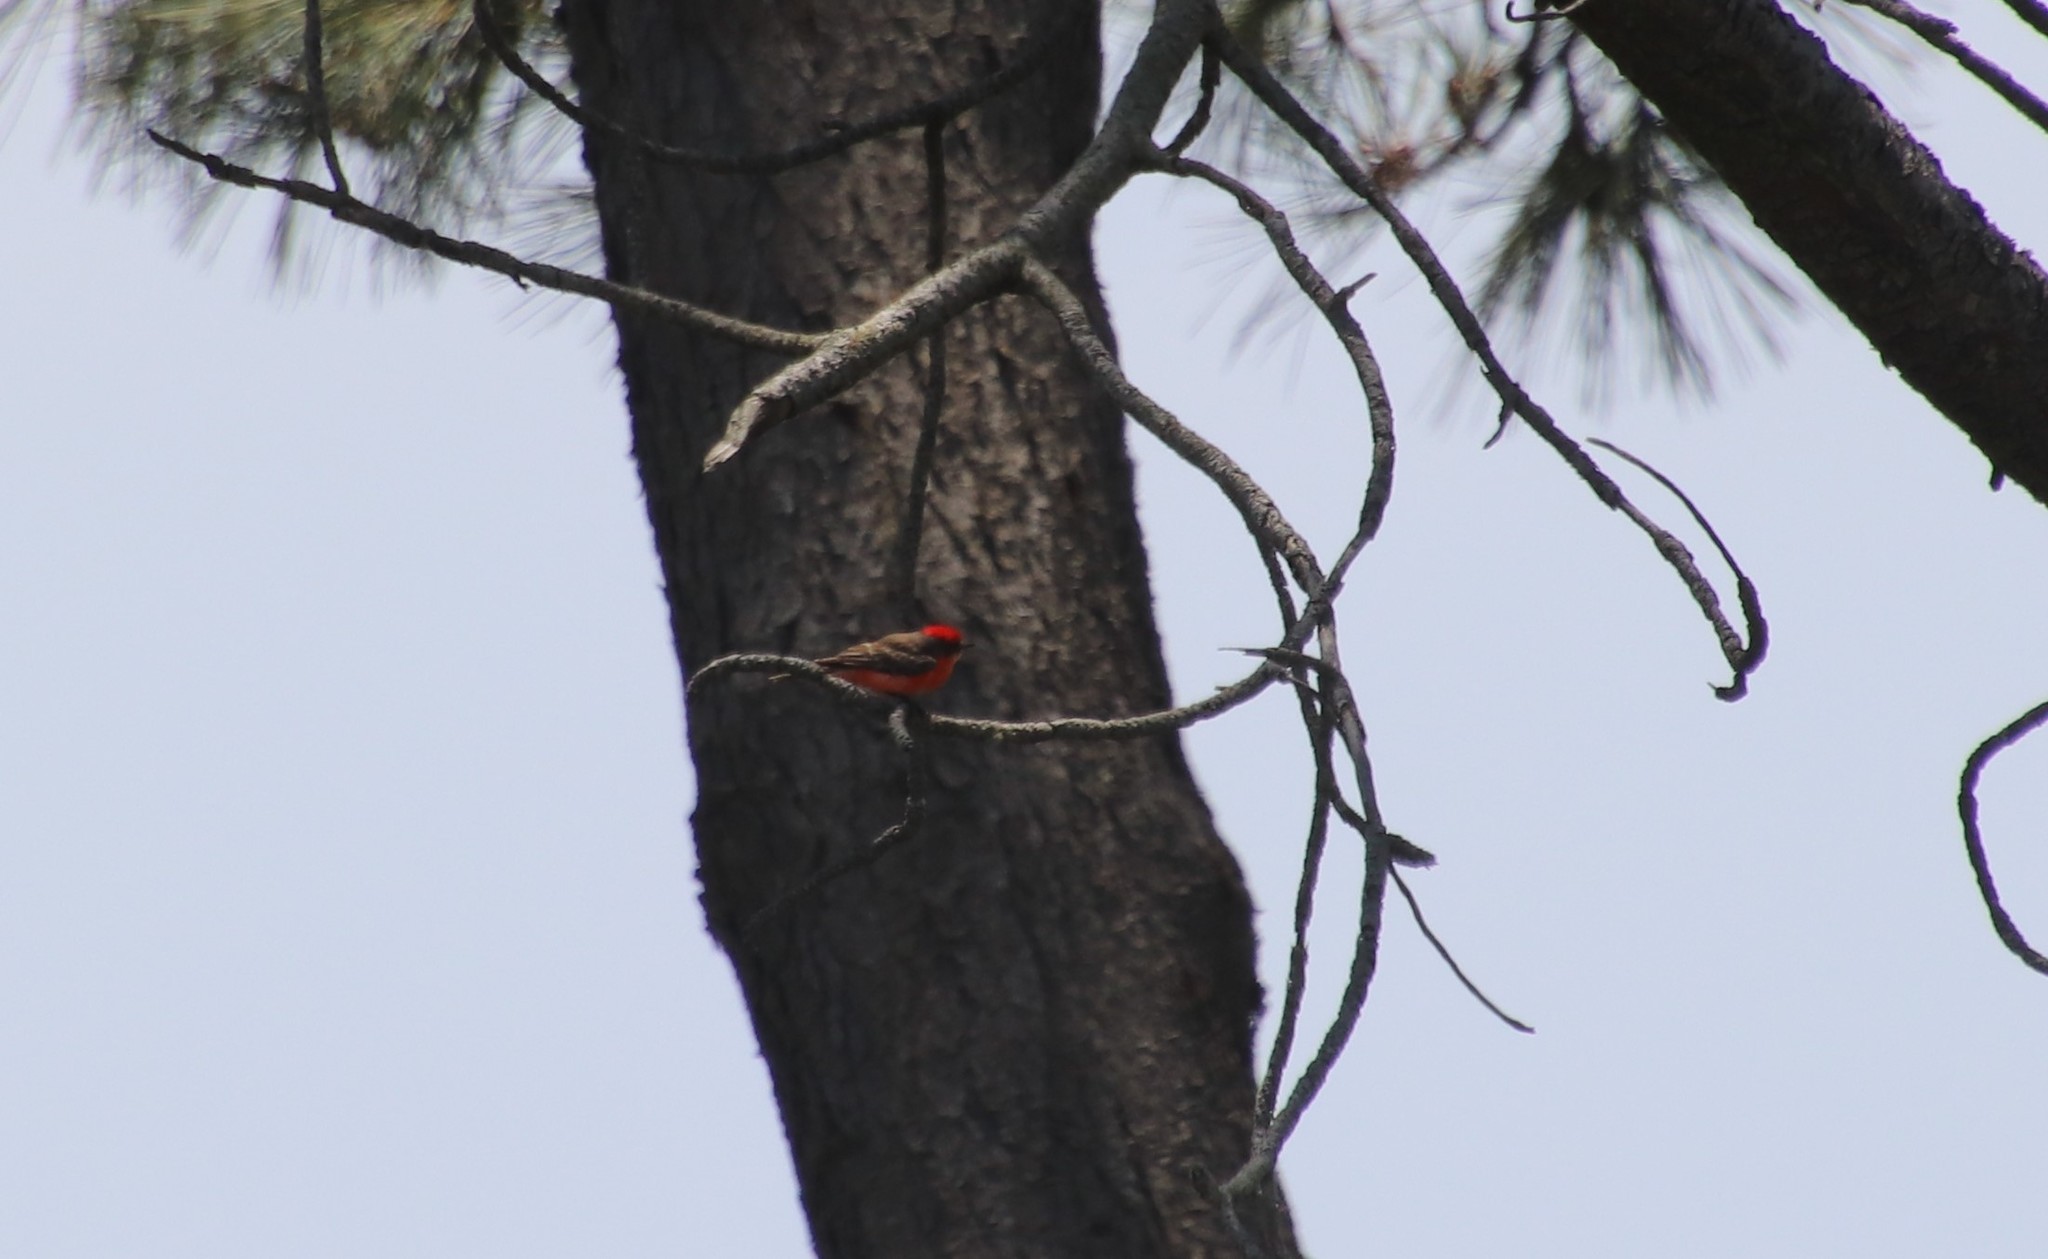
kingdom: Animalia
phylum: Chordata
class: Aves
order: Passeriformes
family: Tyrannidae
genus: Pyrocephalus
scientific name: Pyrocephalus rubinus
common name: Vermilion flycatcher
